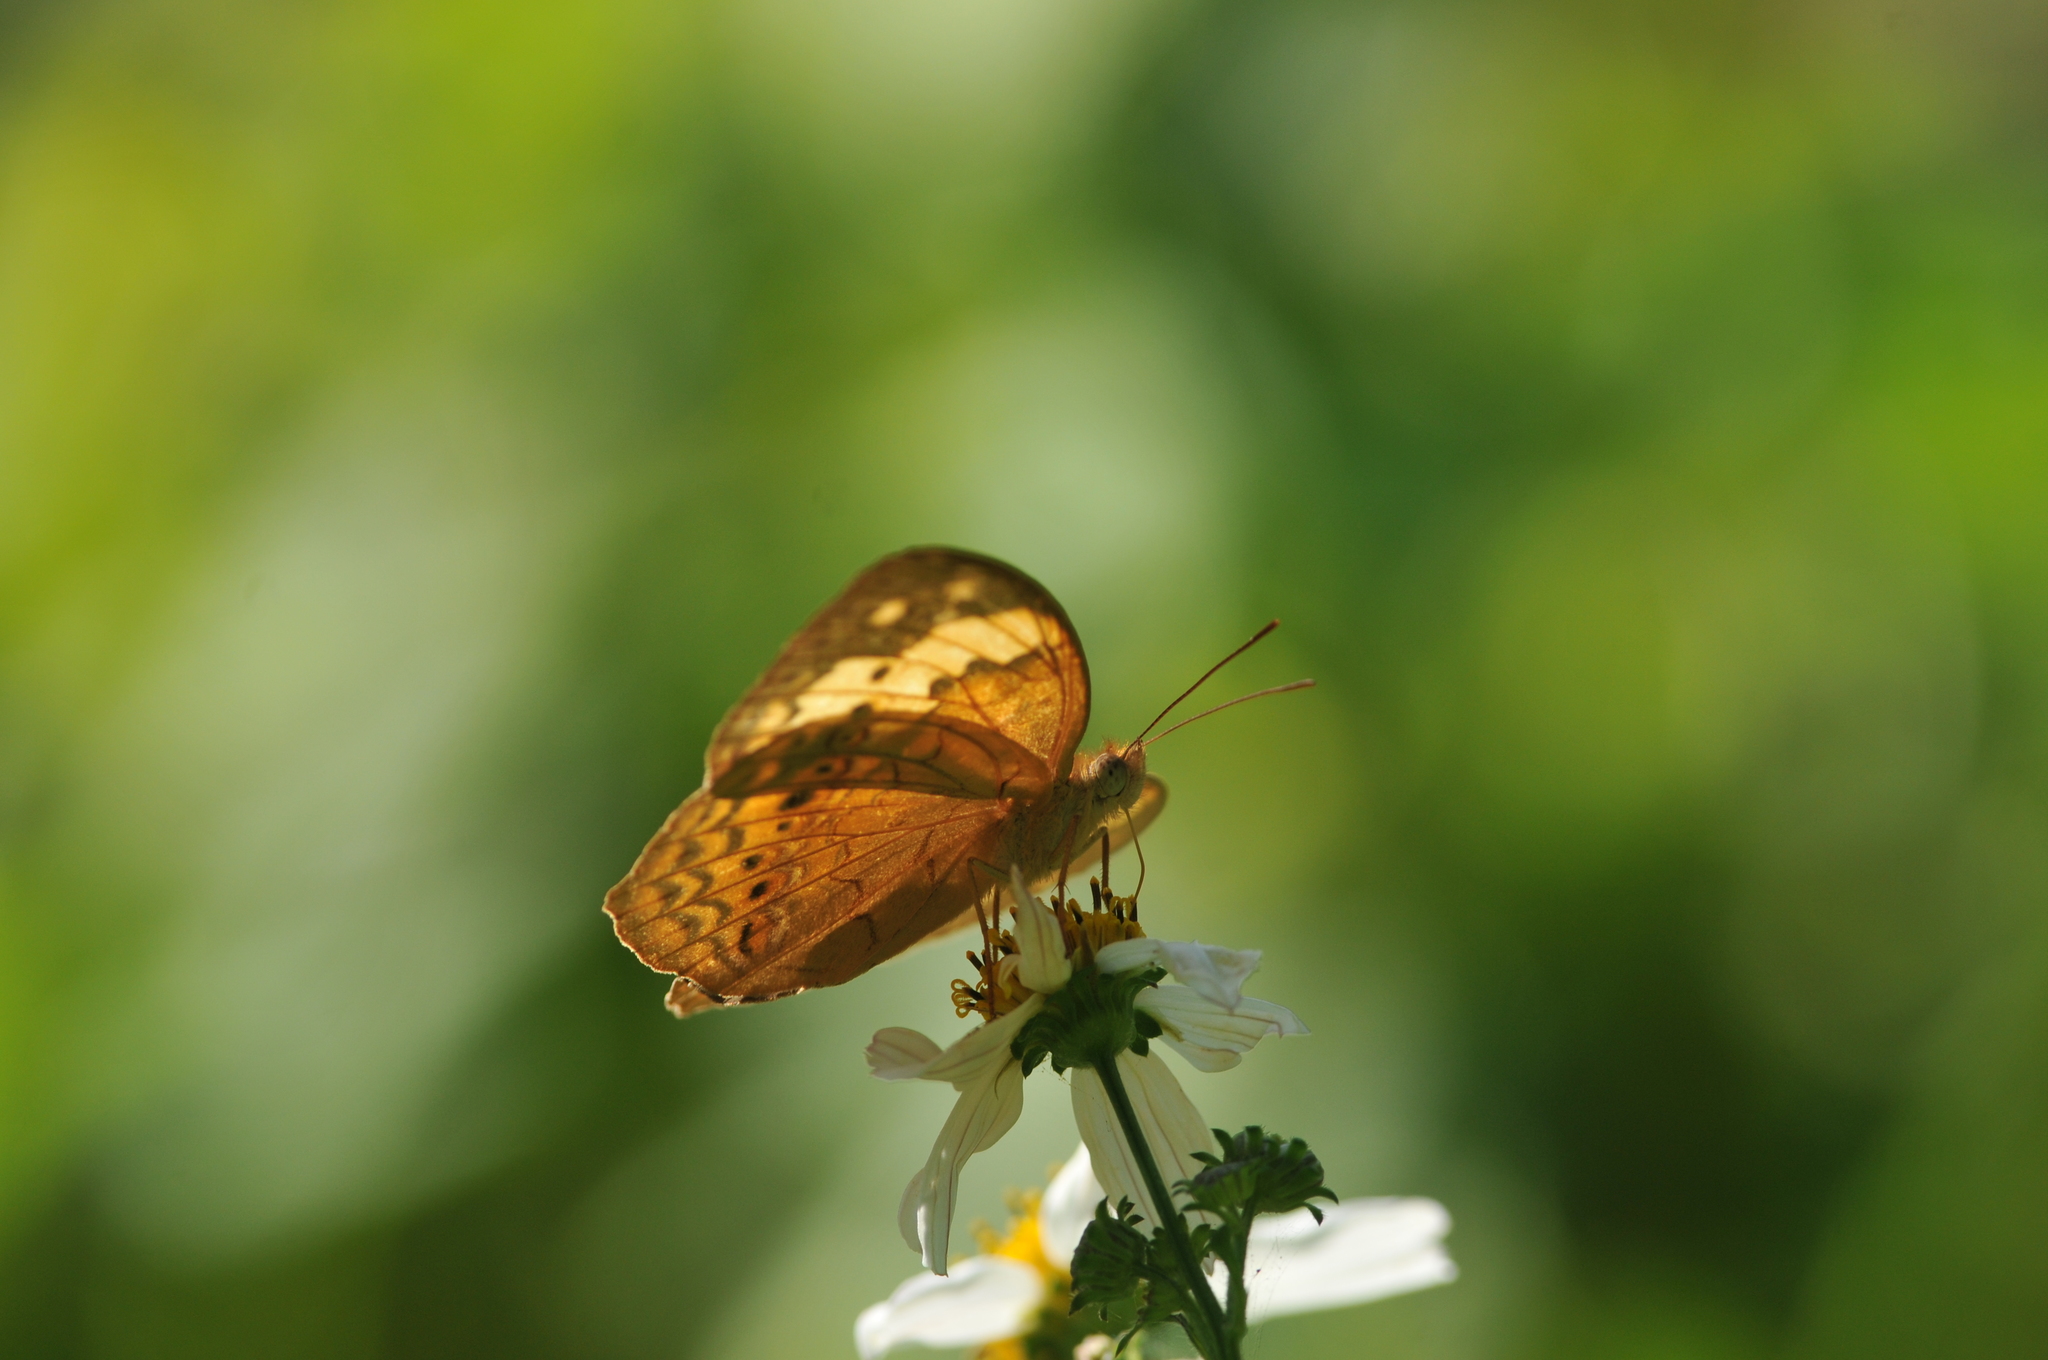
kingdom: Animalia
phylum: Arthropoda
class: Insecta
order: Lepidoptera
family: Nymphalidae
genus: Cupha
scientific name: Cupha erymanthis
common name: Rustic
